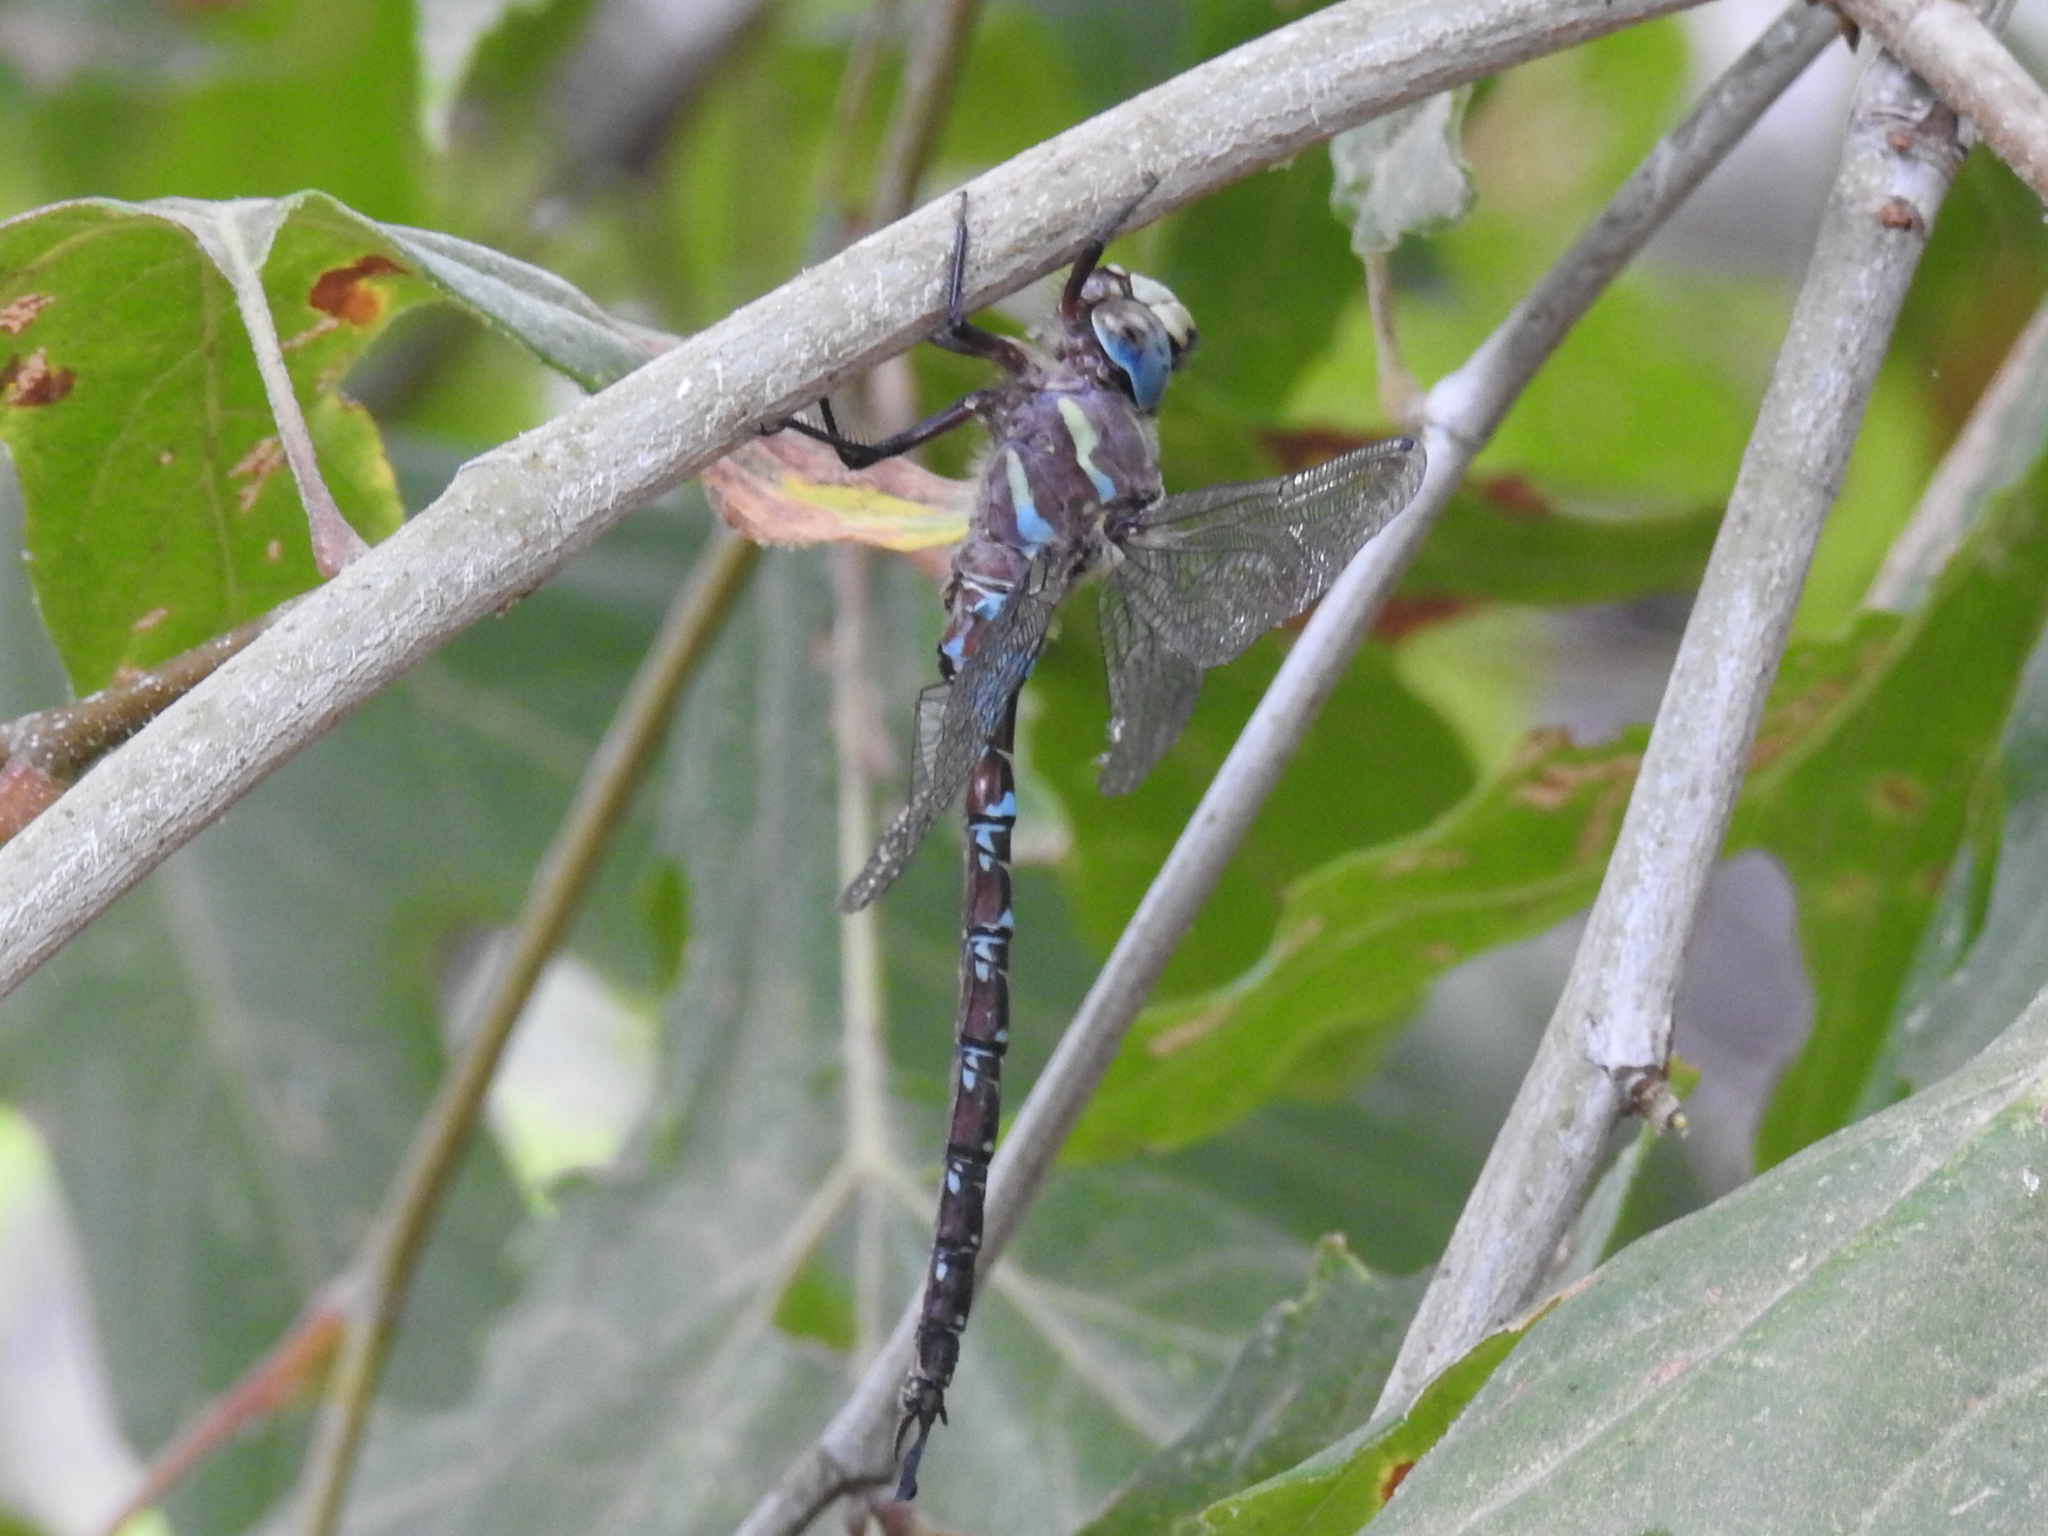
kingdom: Animalia
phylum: Arthropoda
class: Insecta
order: Odonata
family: Aeshnidae
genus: Oplonaeschna
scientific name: Oplonaeschna armata
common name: Riffle darner
